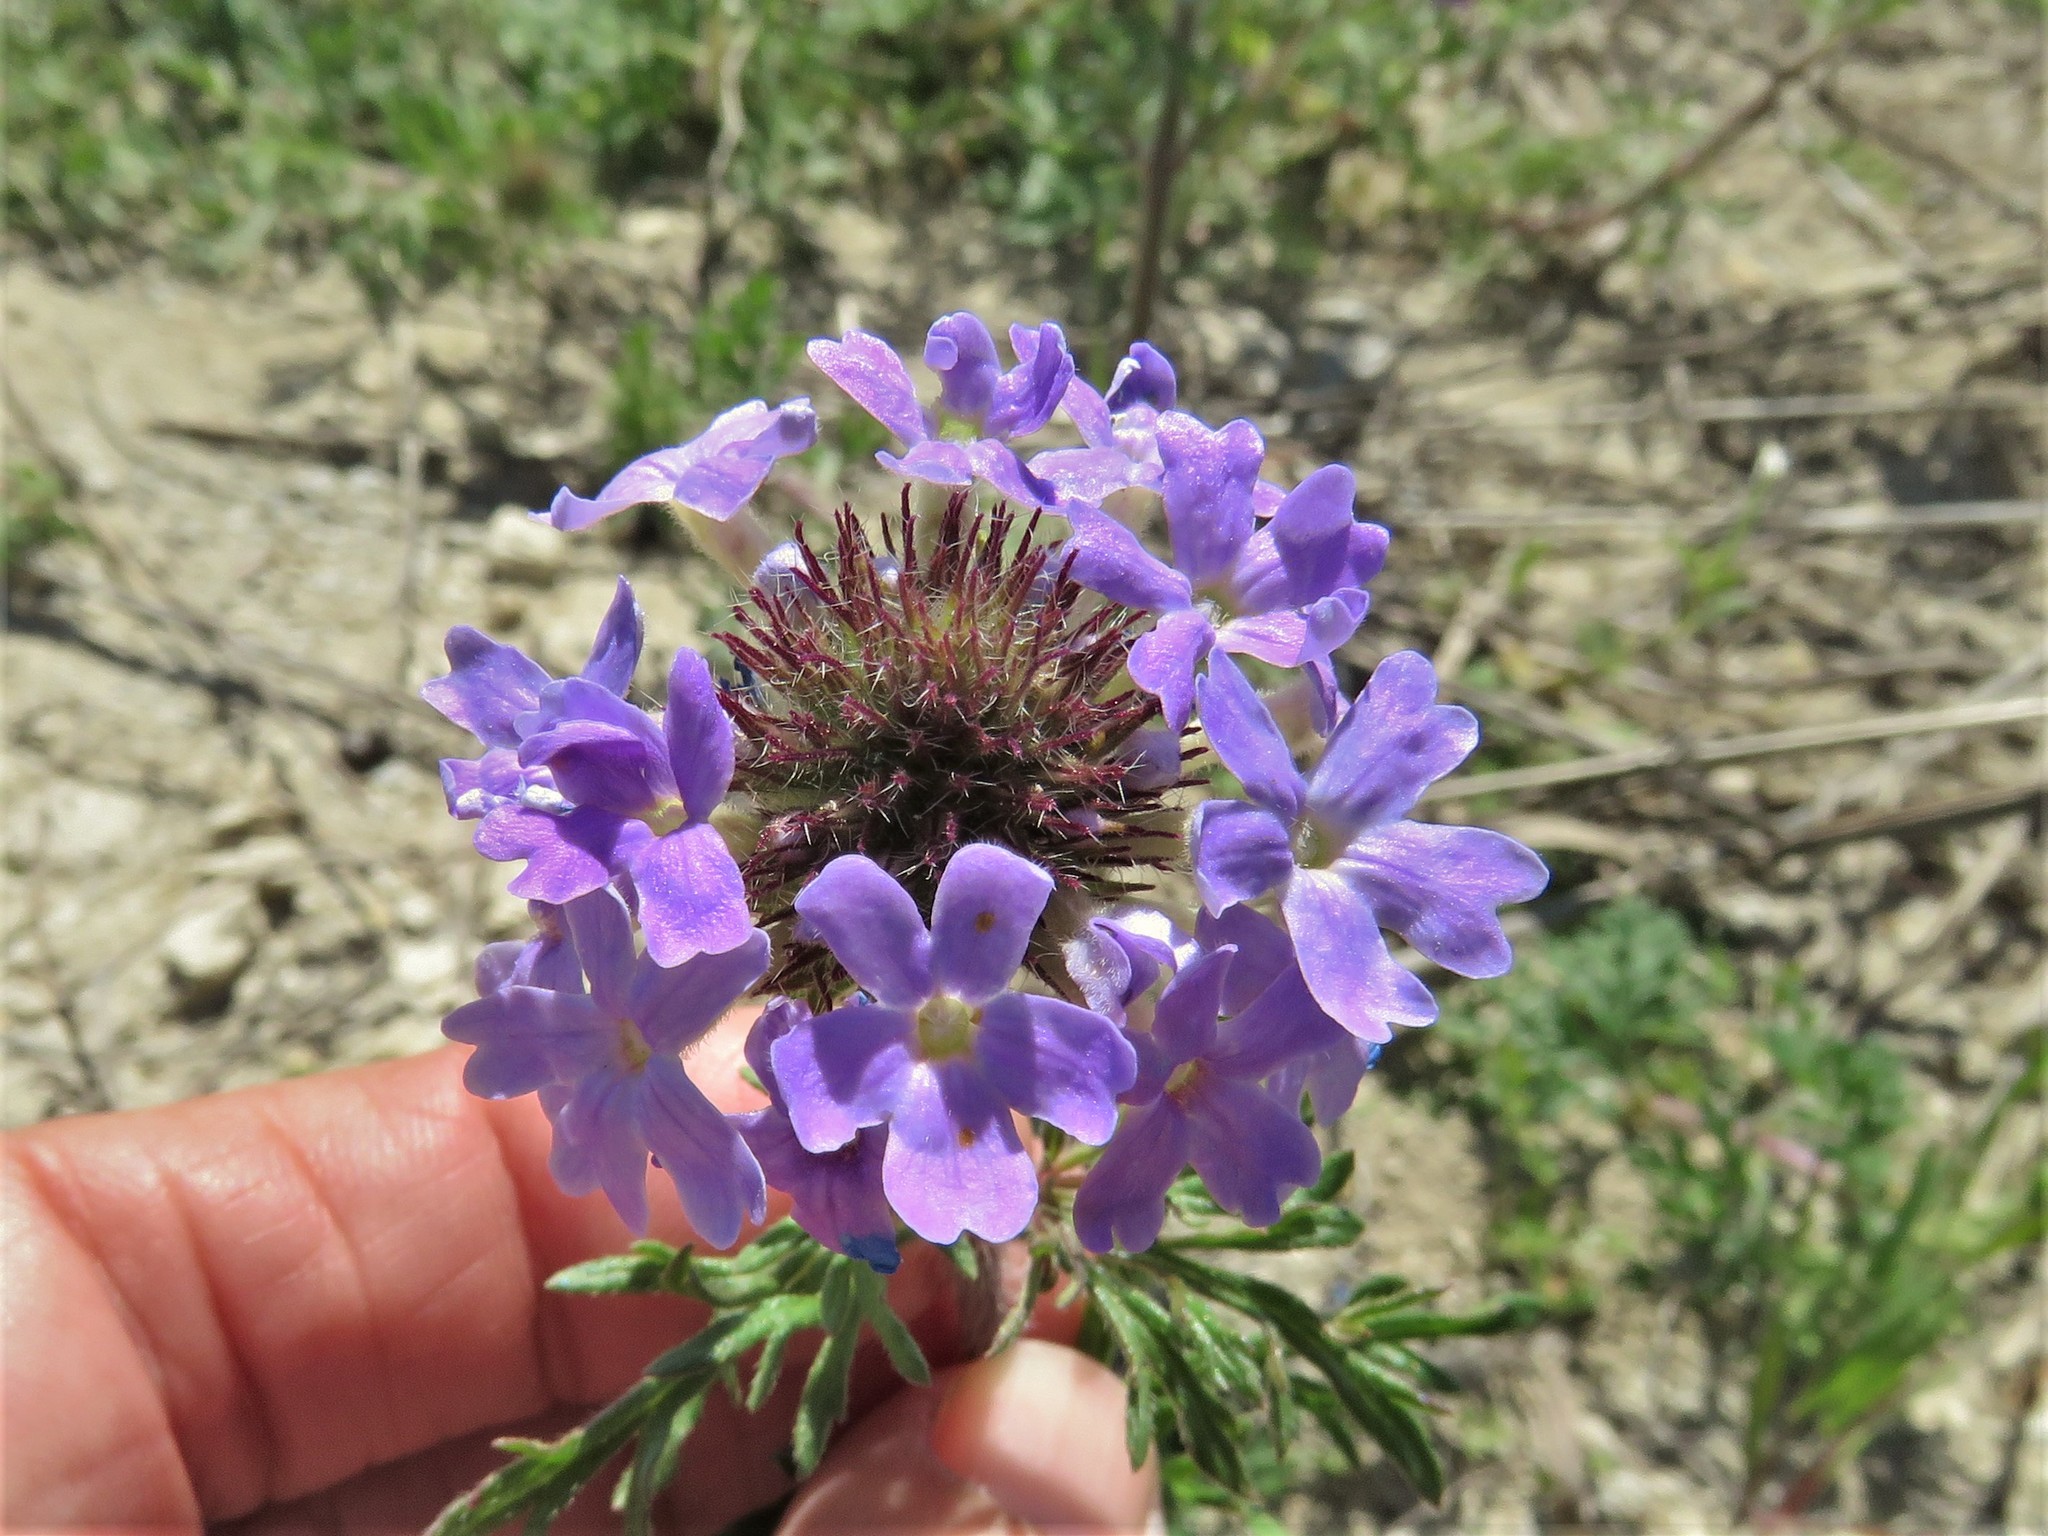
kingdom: Plantae
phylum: Tracheophyta
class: Magnoliopsida
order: Lamiales
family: Verbenaceae
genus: Verbena
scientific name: Verbena bipinnatifida
